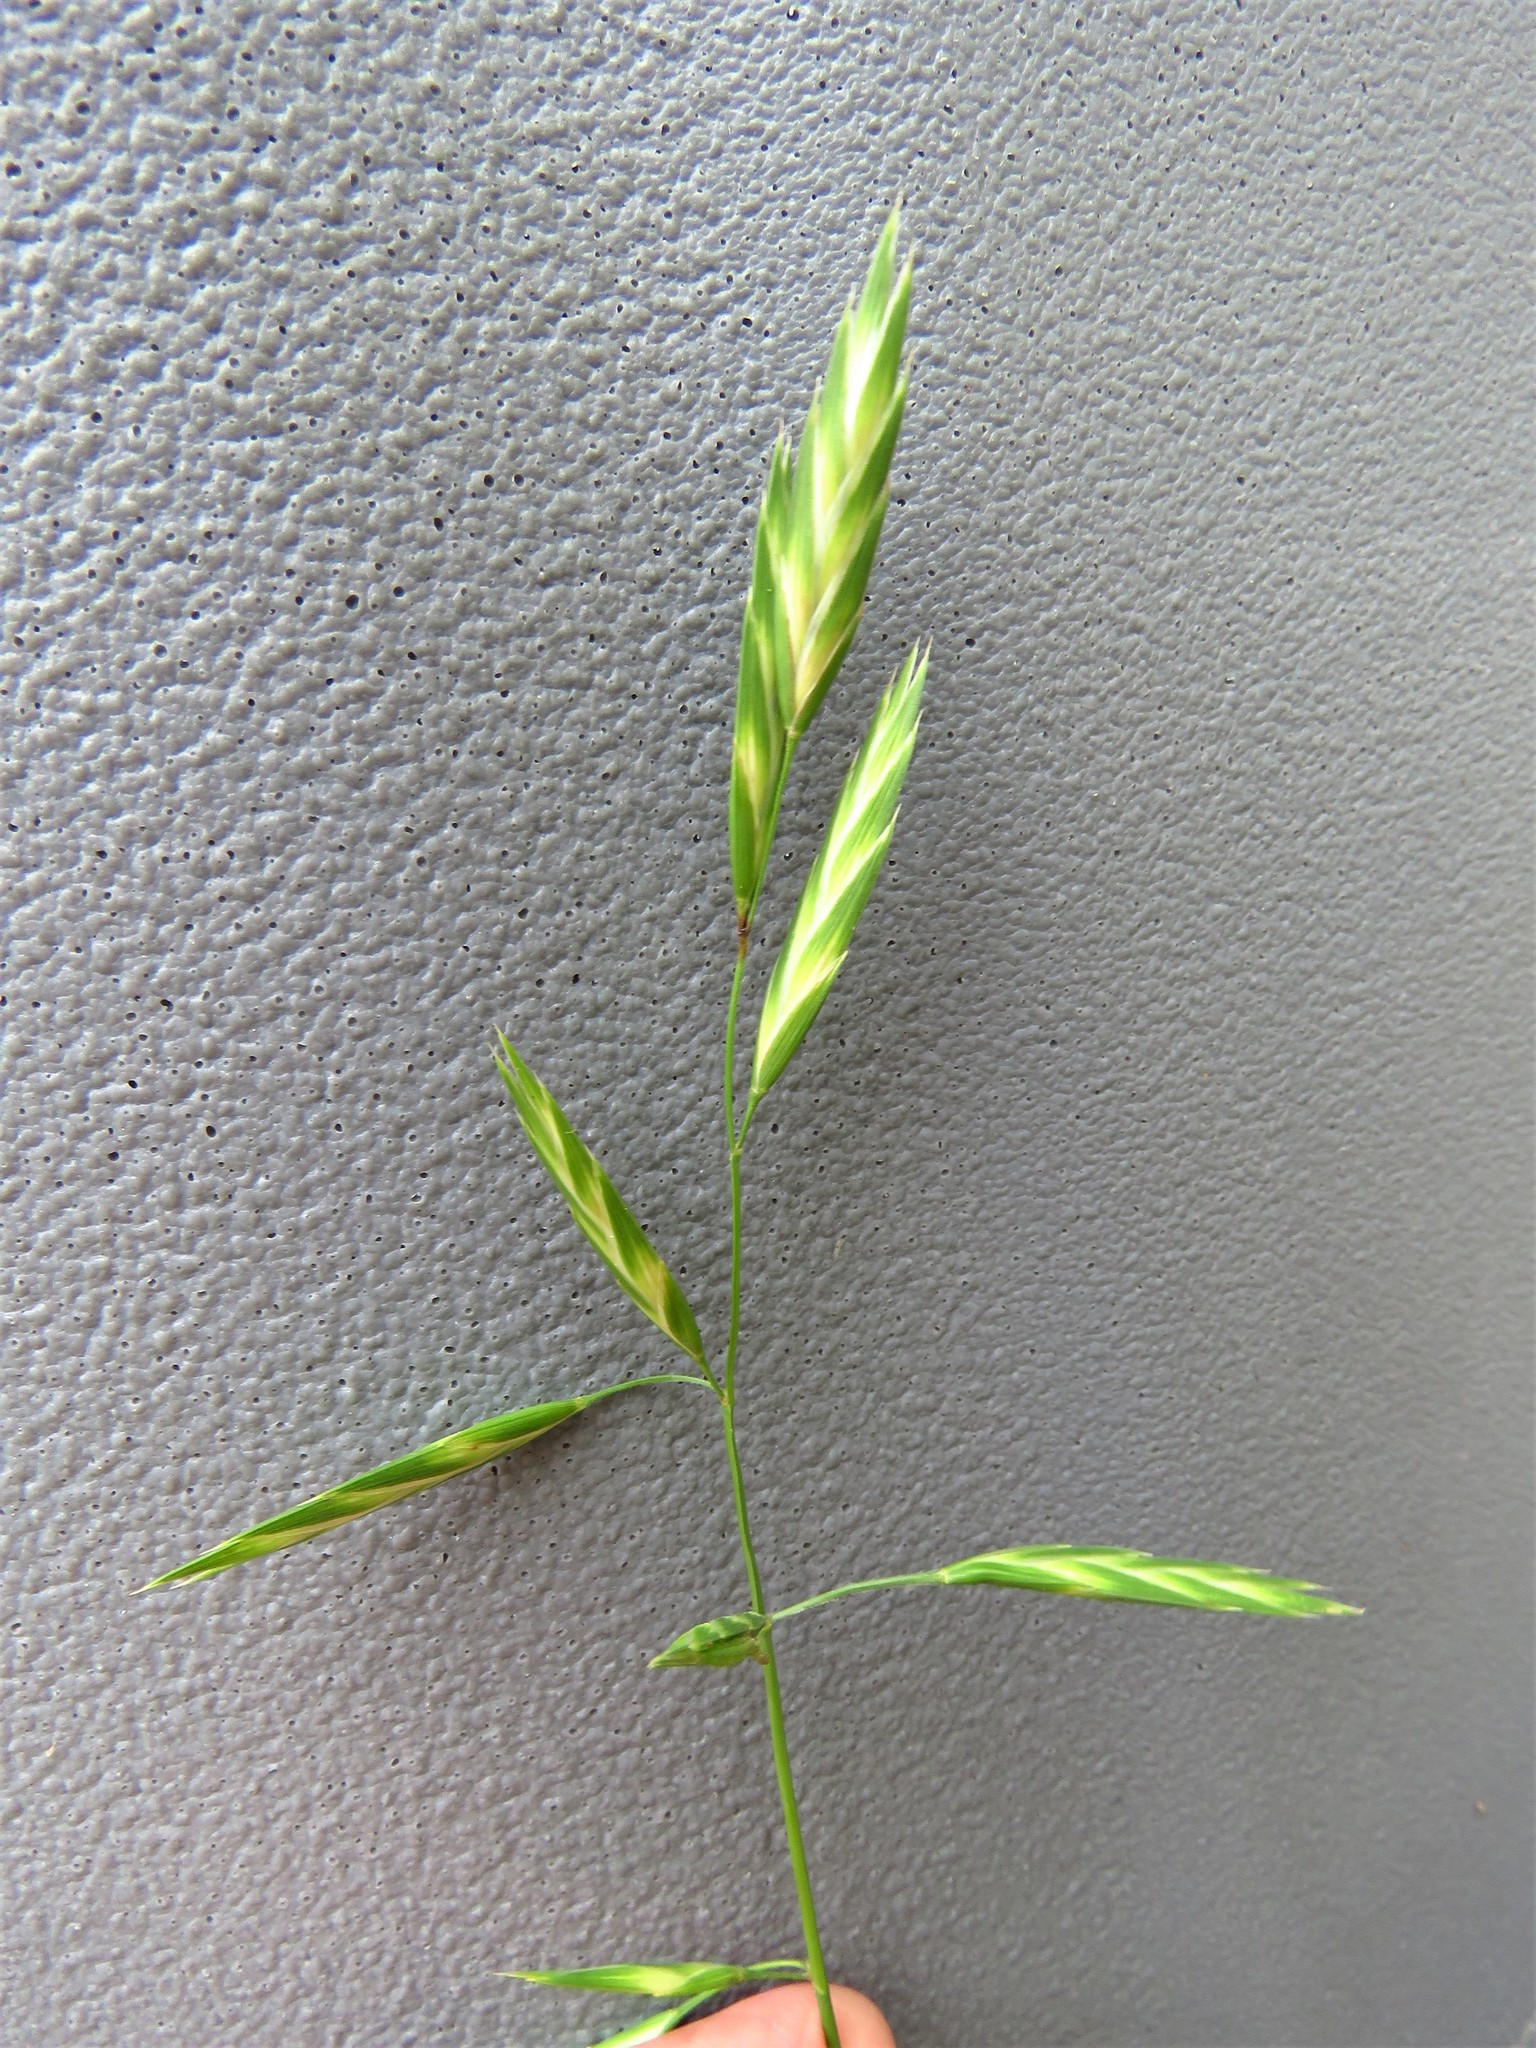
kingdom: Plantae
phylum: Tracheophyta
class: Liliopsida
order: Poales
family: Poaceae
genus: Bromus
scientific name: Bromus catharticus
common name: Rescuegrass
